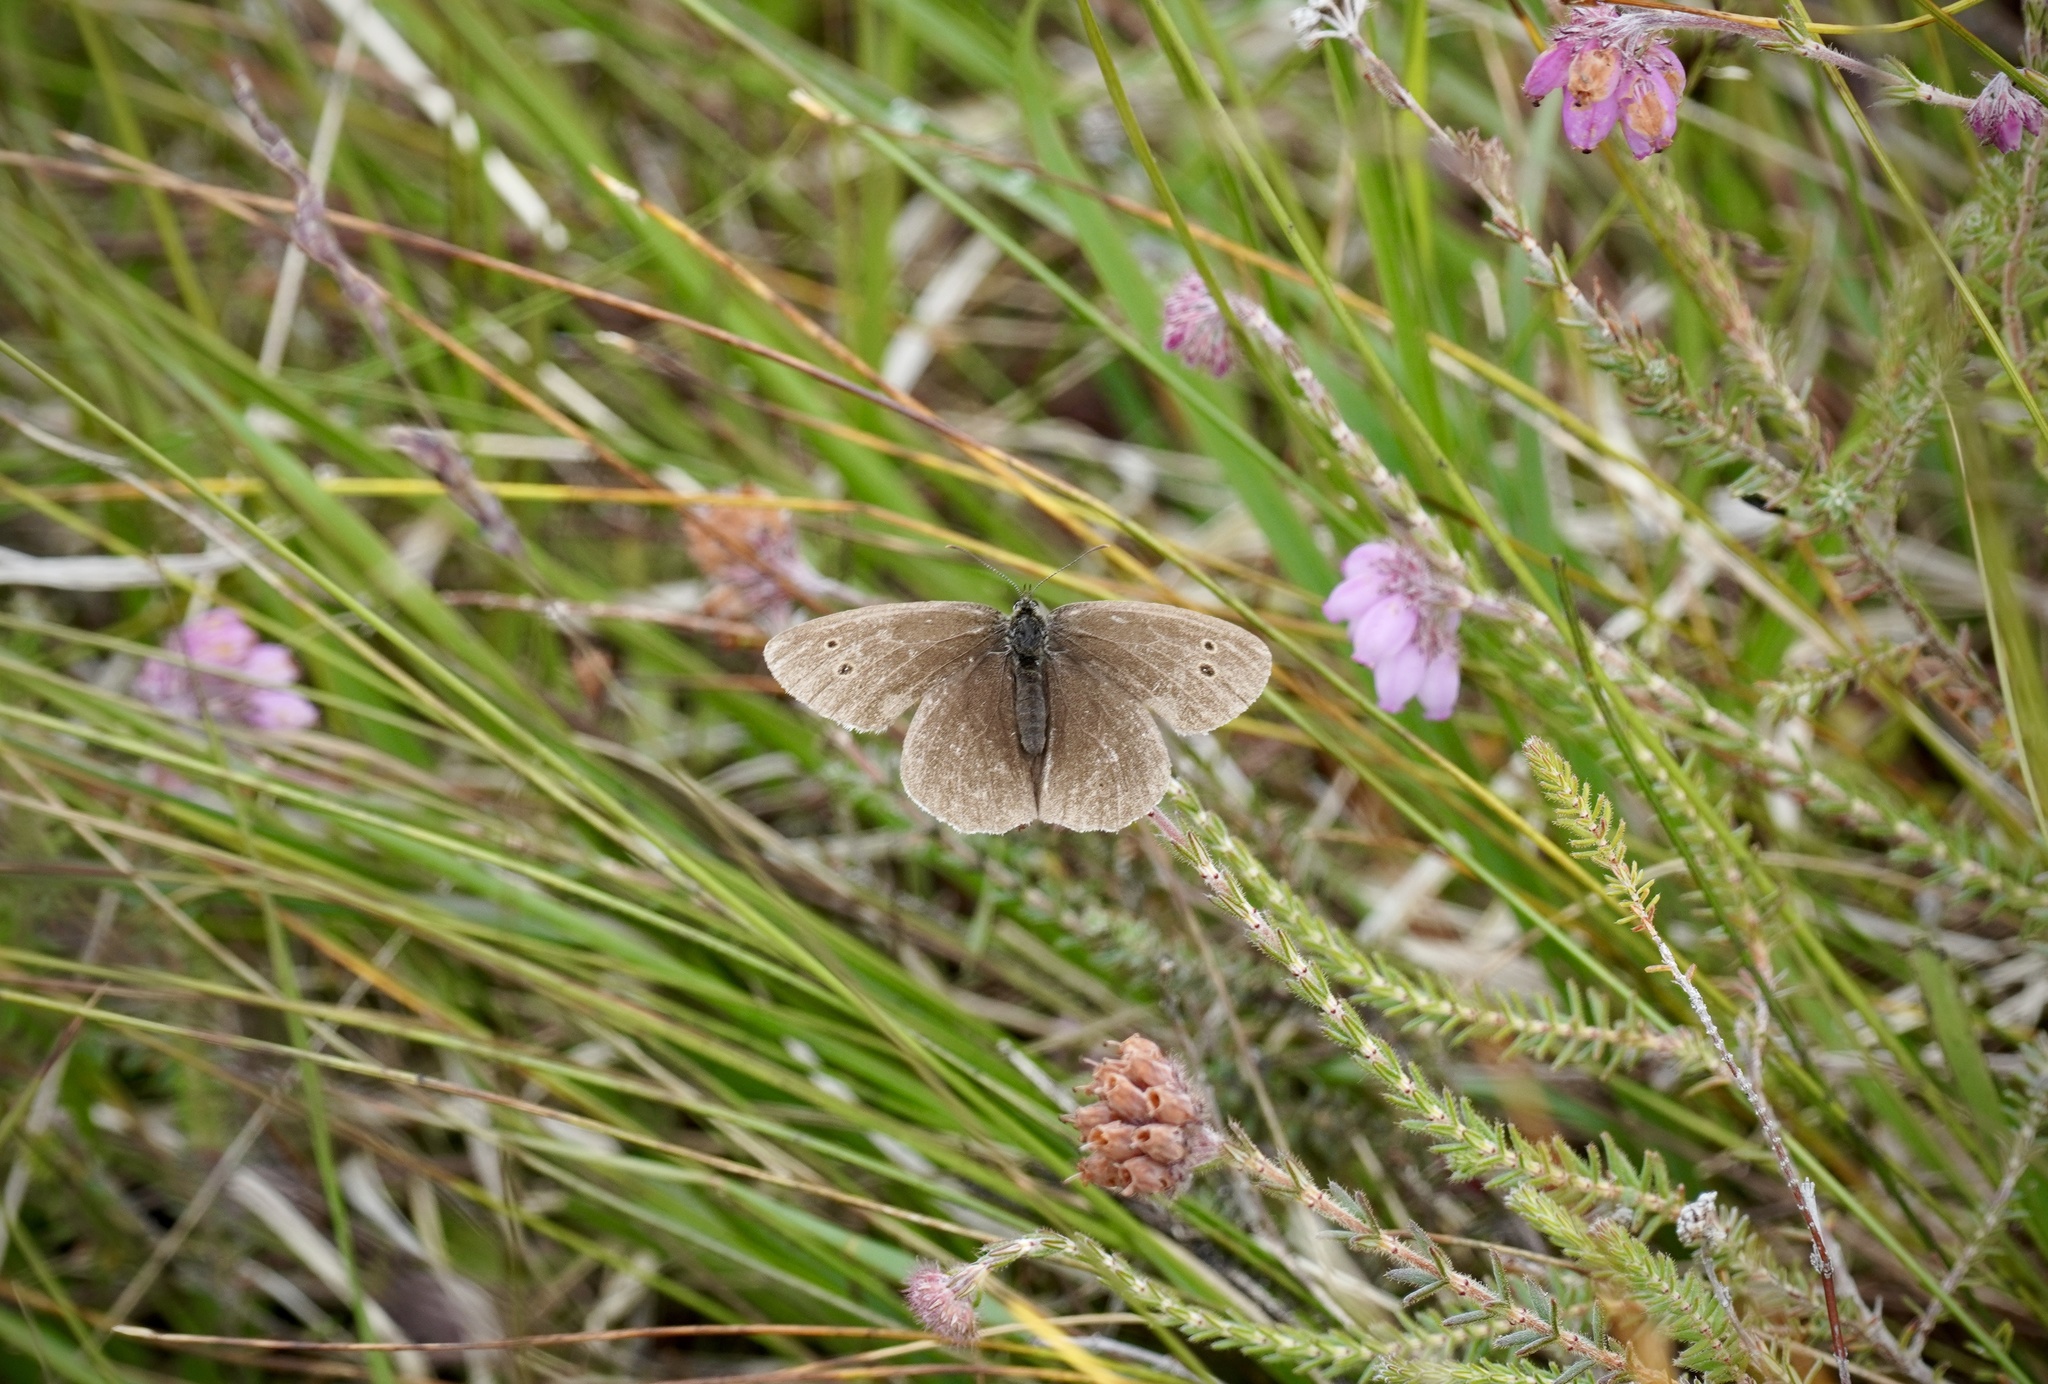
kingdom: Animalia
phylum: Arthropoda
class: Insecta
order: Lepidoptera
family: Nymphalidae
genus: Aphantopus
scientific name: Aphantopus hyperantus
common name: Ringlet
